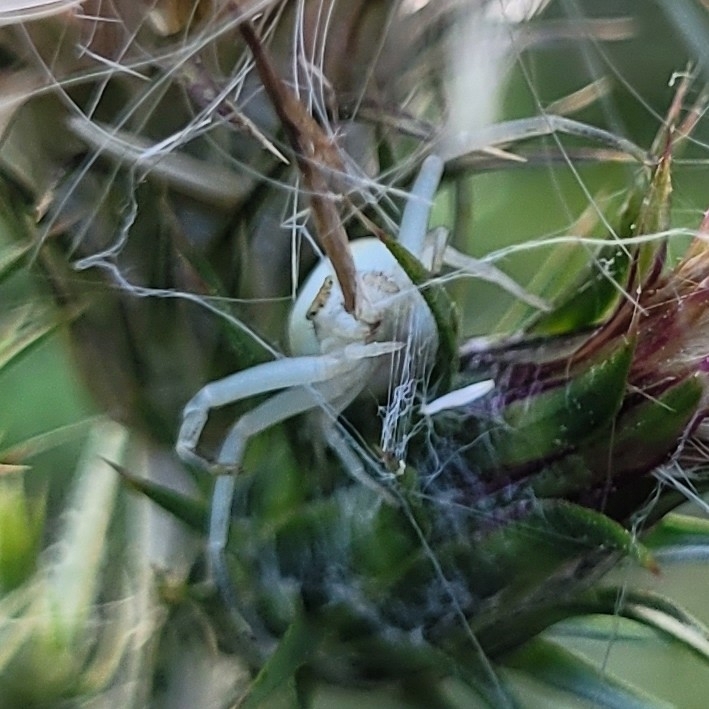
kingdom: Animalia
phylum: Arthropoda
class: Arachnida
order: Araneae
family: Thomisidae
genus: Misumena
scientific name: Misumena vatia
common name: Goldenrod crab spider
